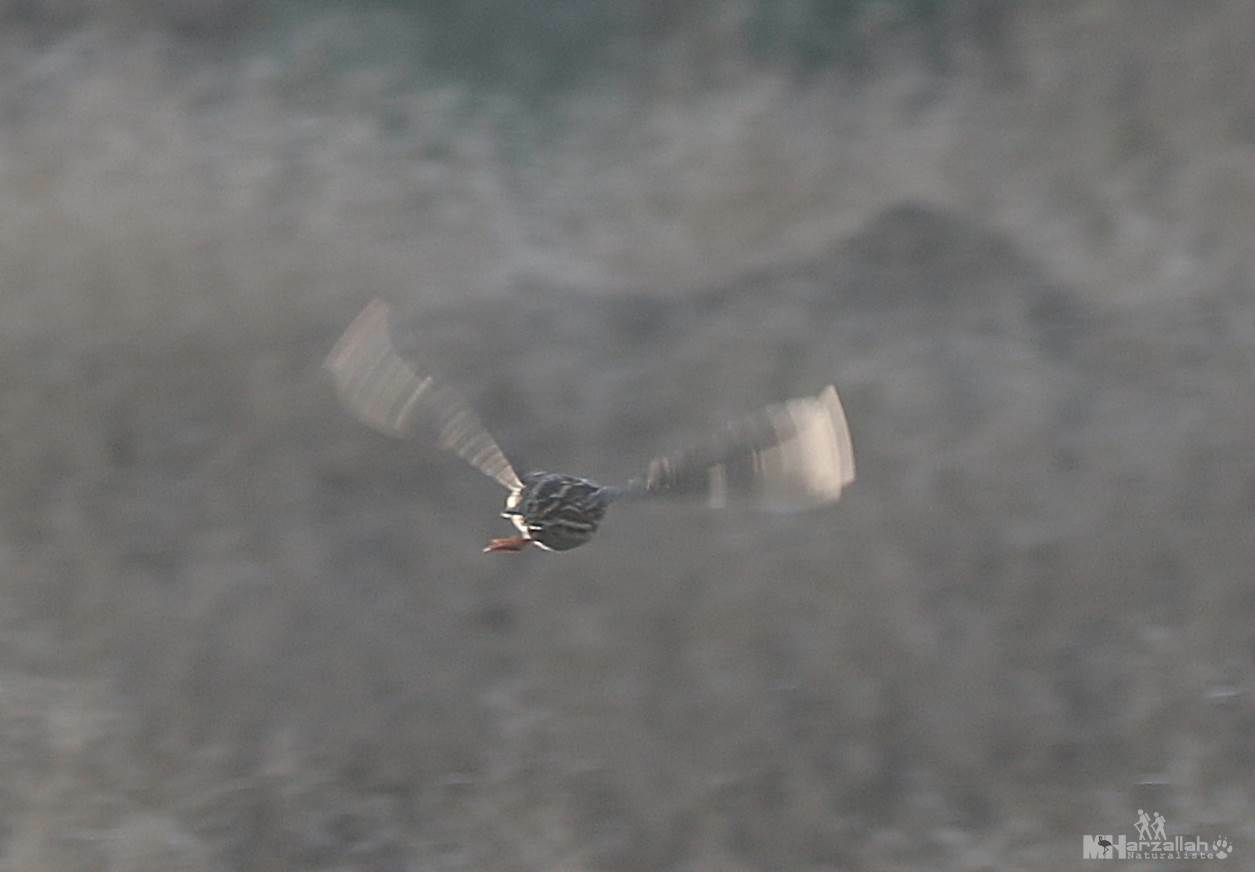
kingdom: Animalia
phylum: Chordata
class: Aves
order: Galliformes
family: Phasianidae
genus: Coturnix
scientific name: Coturnix coturnix
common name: Common quail
